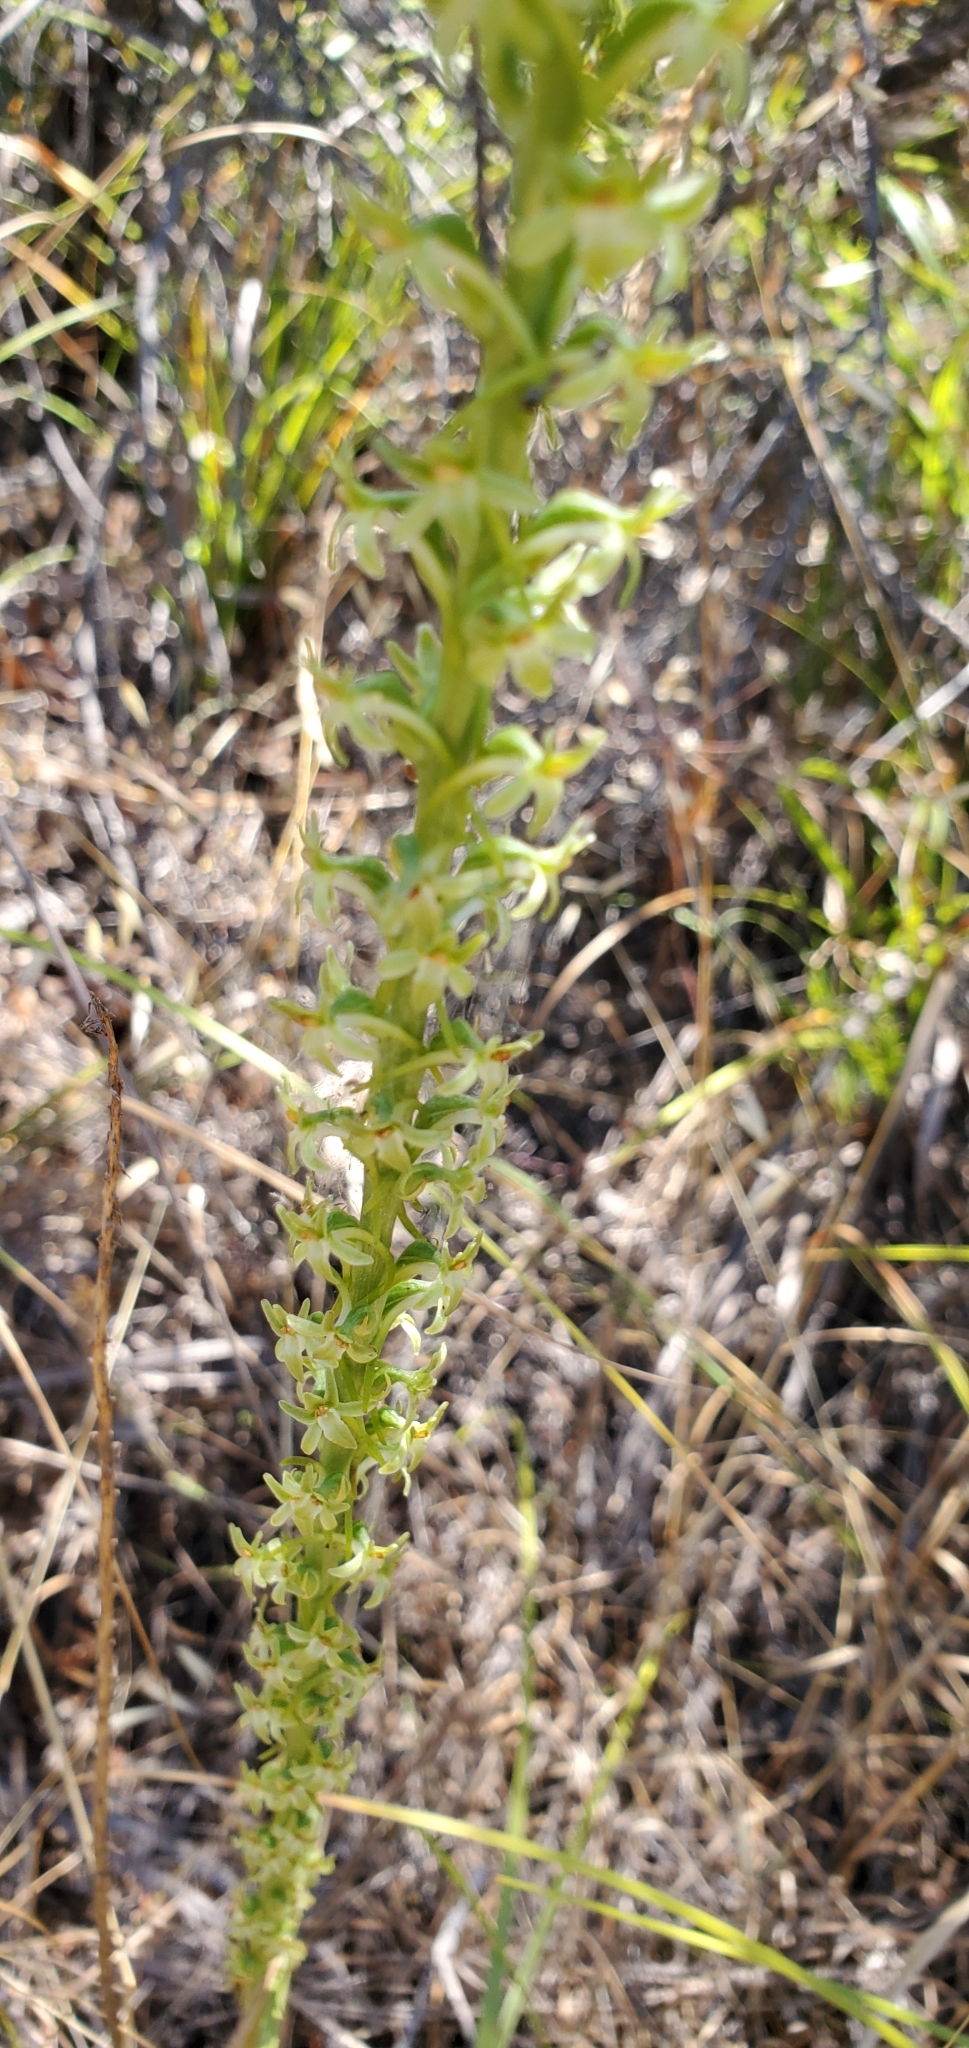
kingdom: Plantae
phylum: Tracheophyta
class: Liliopsida
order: Asparagales
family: Orchidaceae
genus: Platanthera
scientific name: Platanthera elongata
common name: Dense-flowered rein orchid
